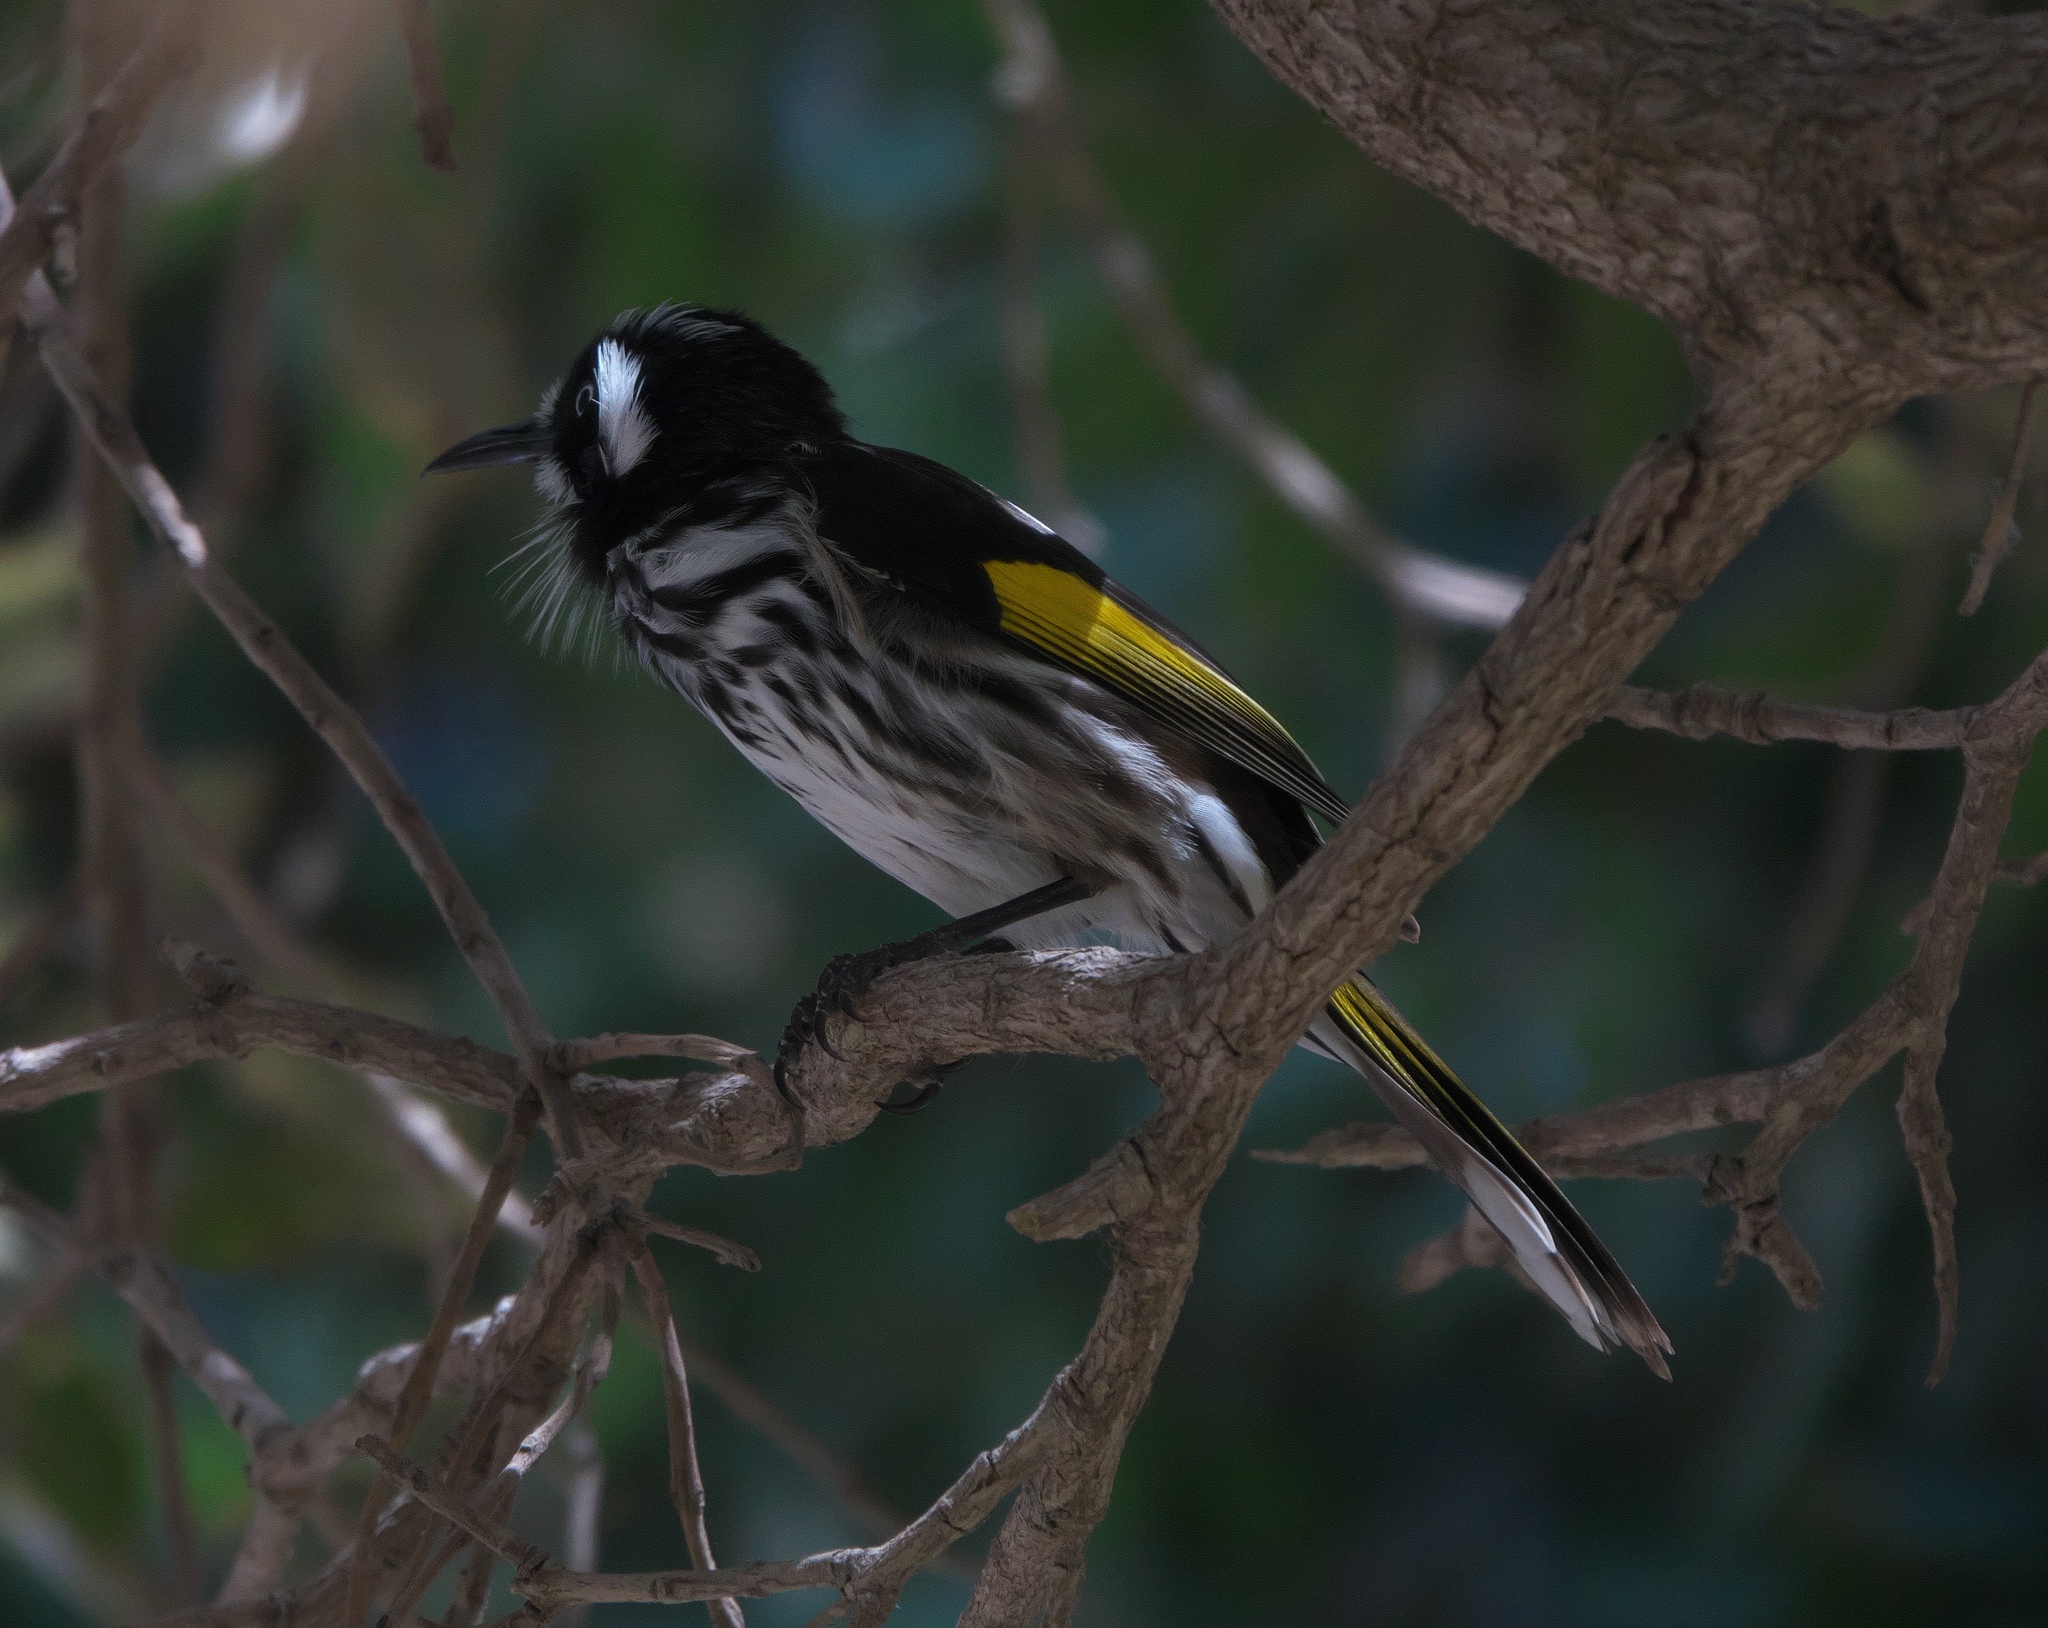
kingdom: Animalia
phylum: Chordata
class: Aves
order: Passeriformes
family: Meliphagidae
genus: Phylidonyris
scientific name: Phylidonyris novaehollandiae
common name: New holland honeyeater
